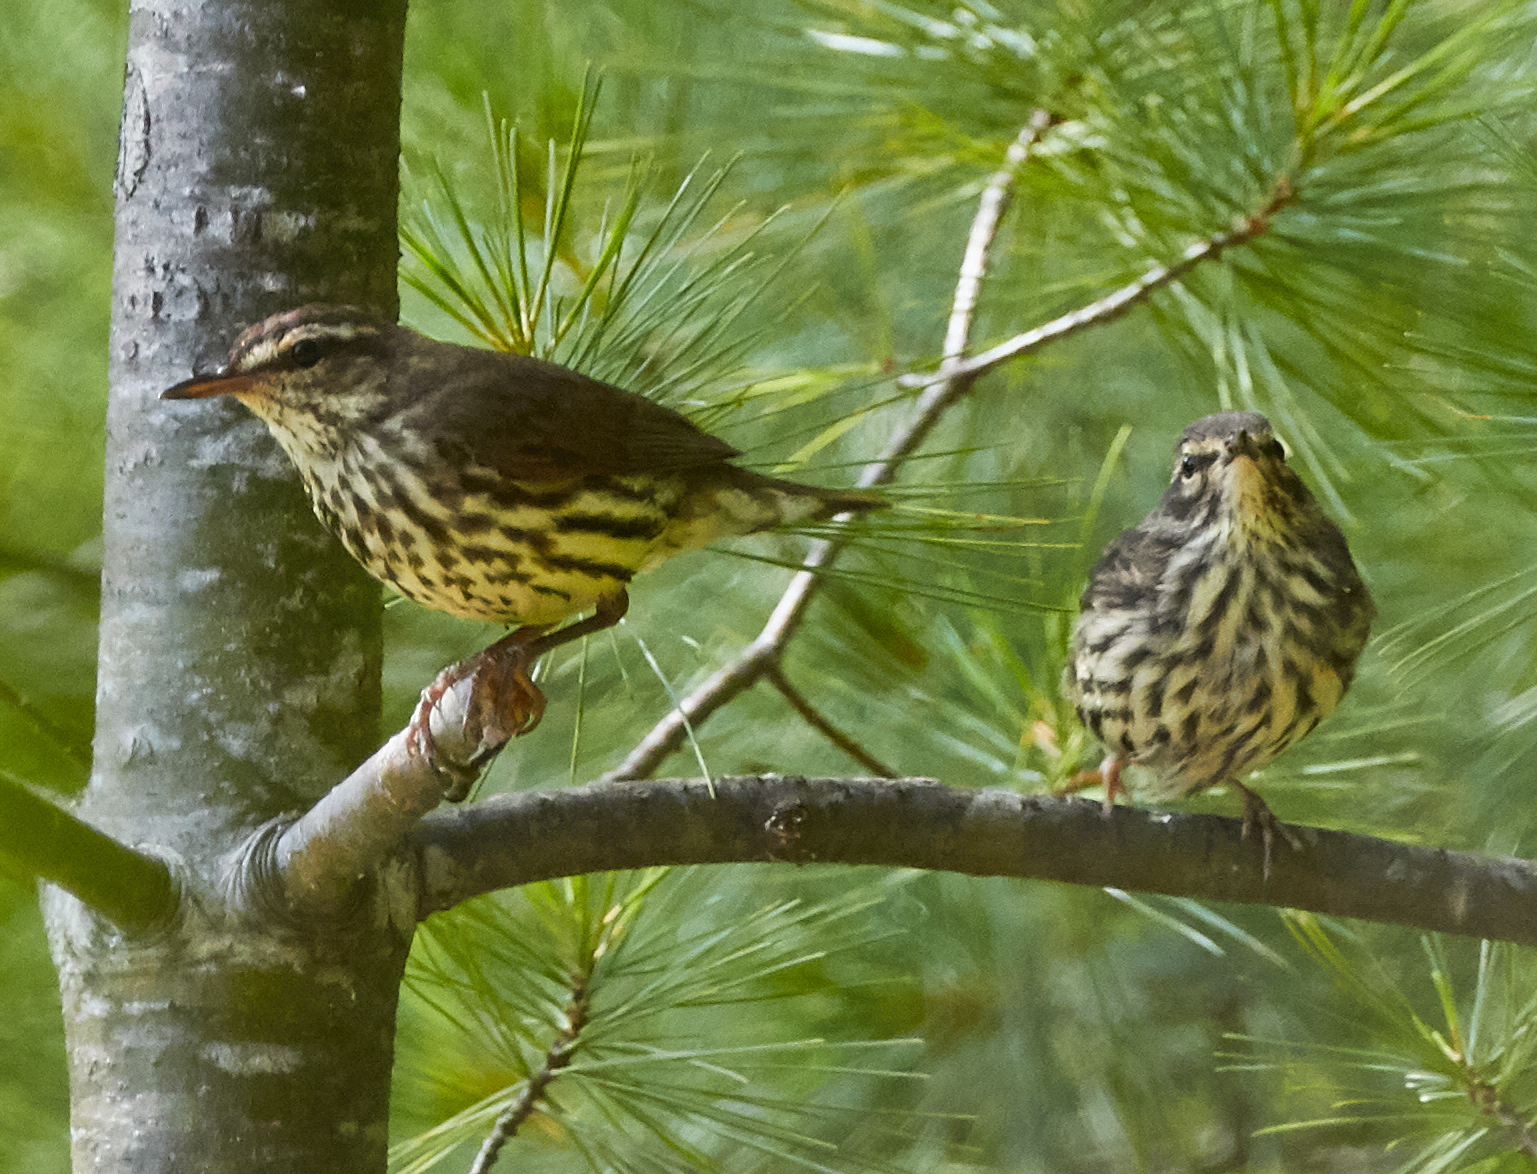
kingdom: Animalia
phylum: Chordata
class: Aves
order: Passeriformes
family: Parulidae
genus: Parkesia
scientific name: Parkesia noveboracensis
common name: Northern waterthrush
